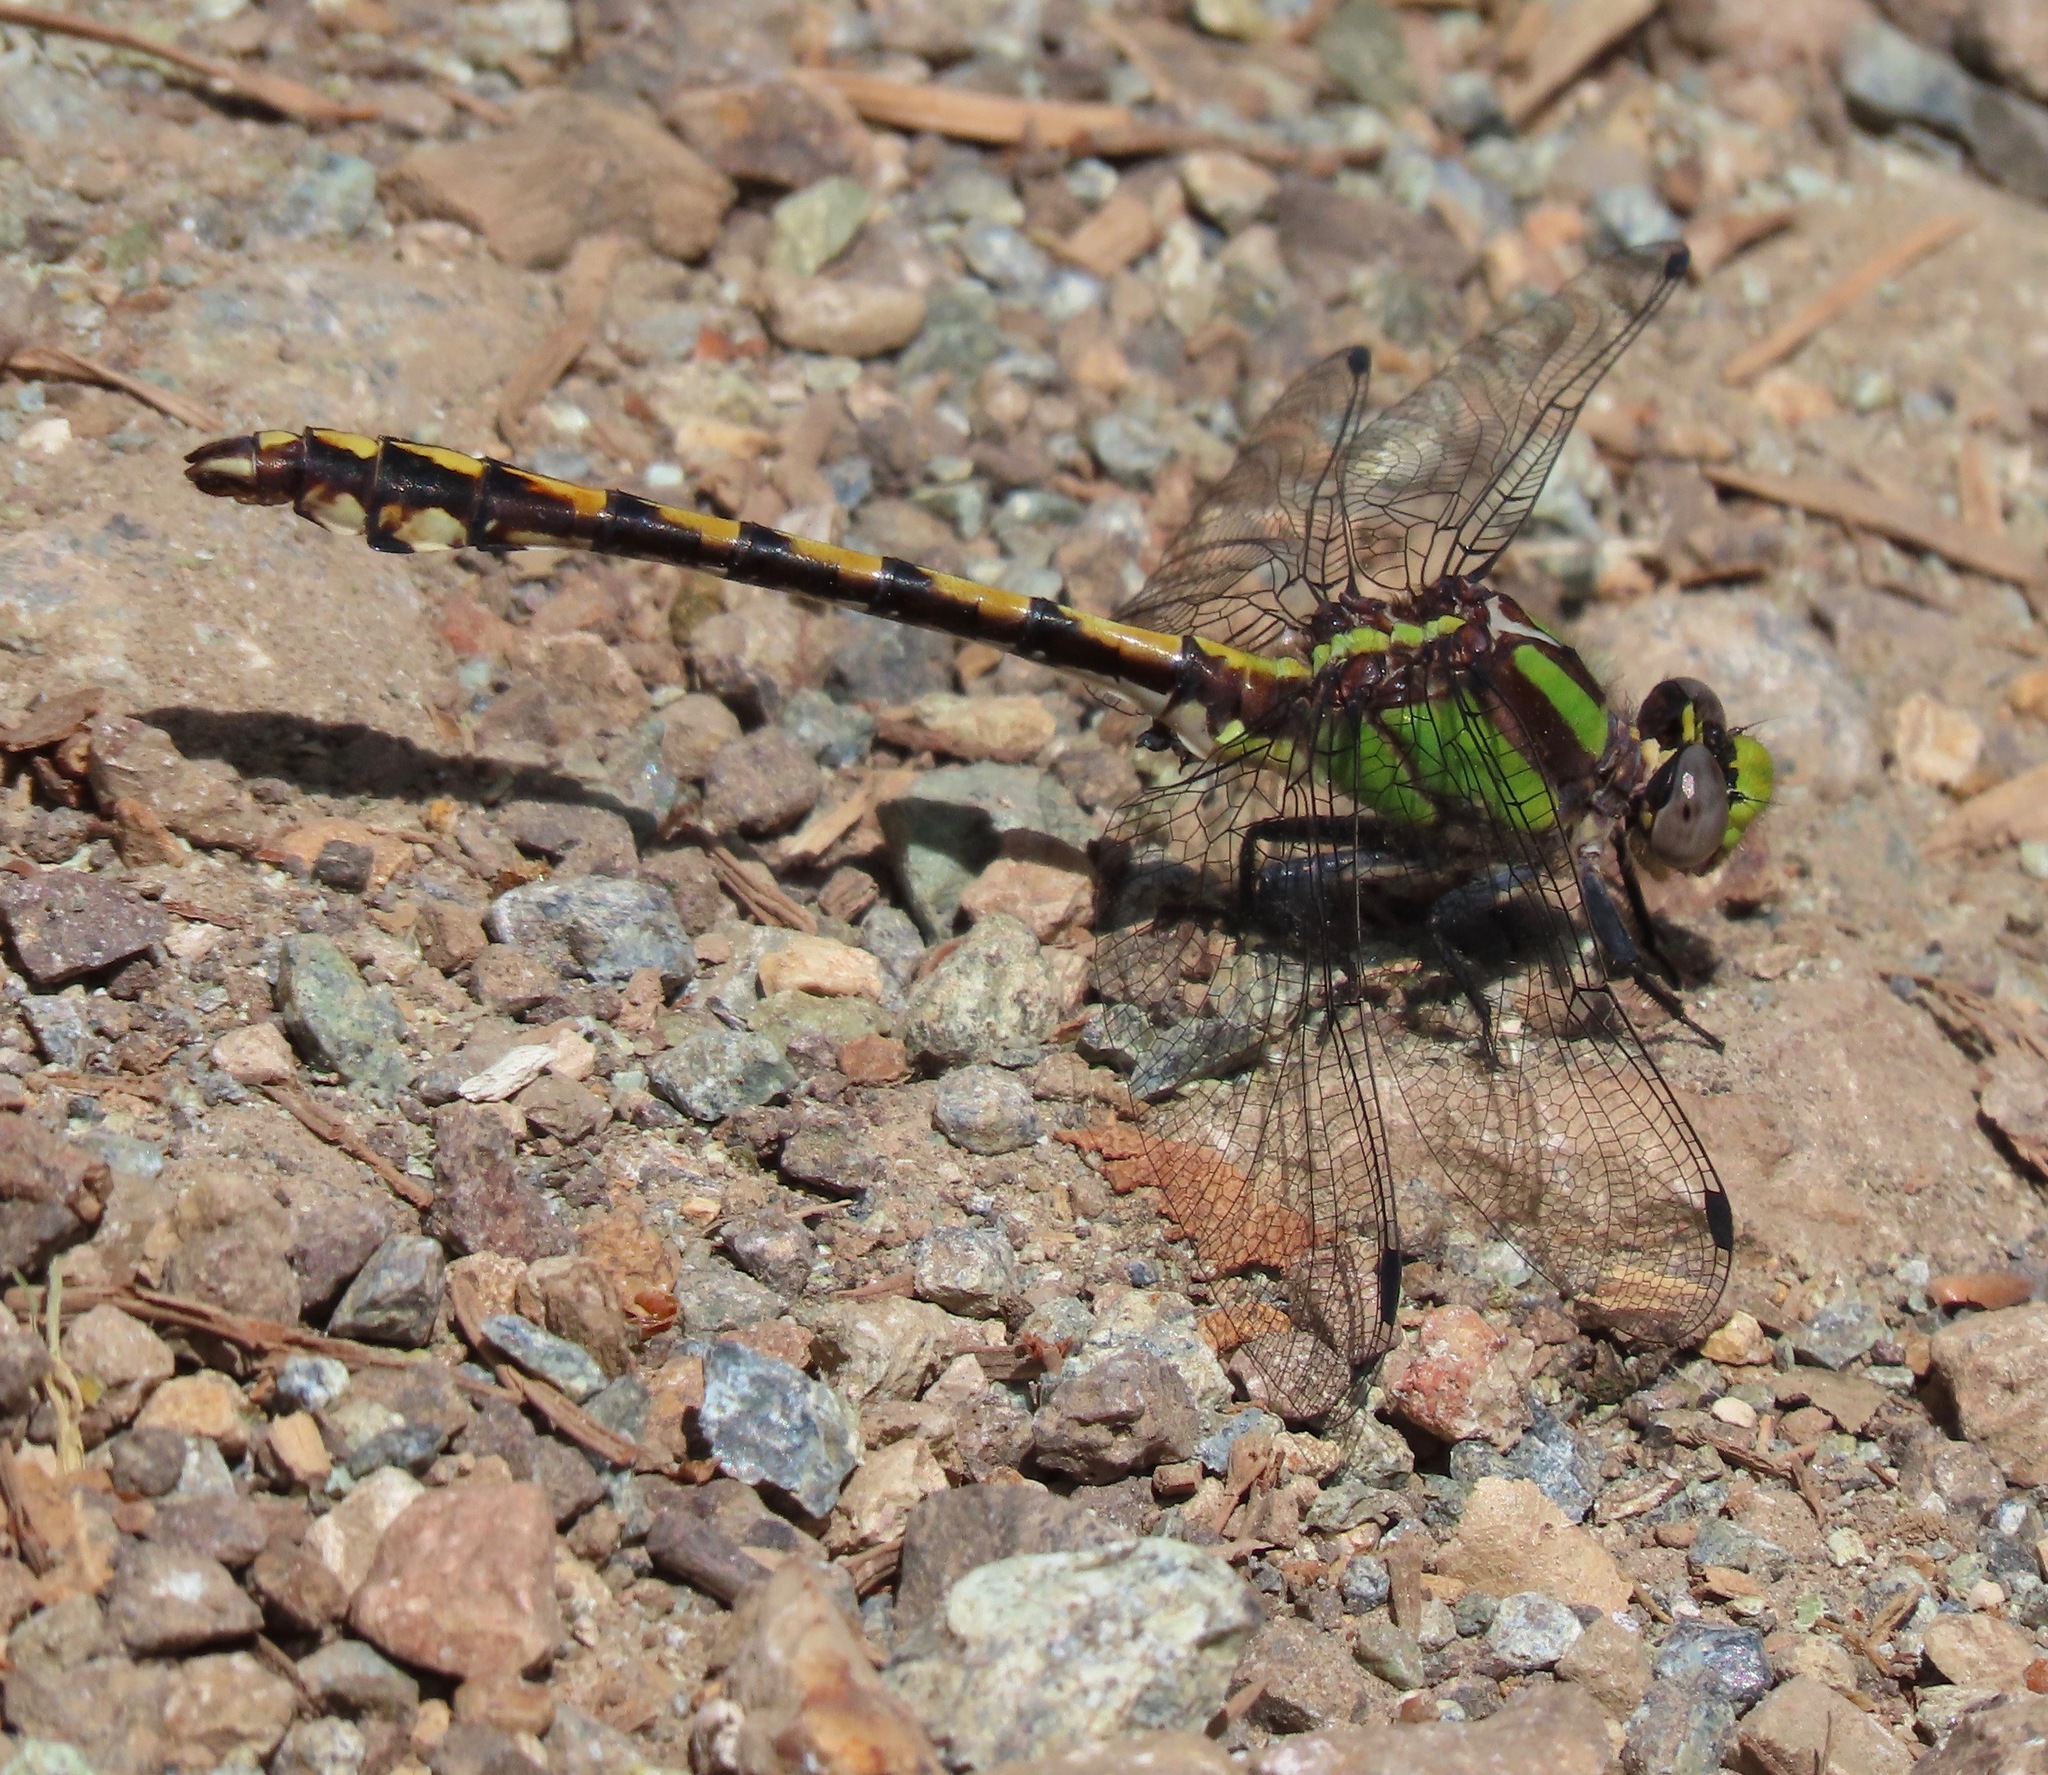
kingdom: Animalia
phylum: Arthropoda
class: Insecta
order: Odonata
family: Gomphidae
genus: Ophiogomphus
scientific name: Ophiogomphus bison
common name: Bison snaketail
